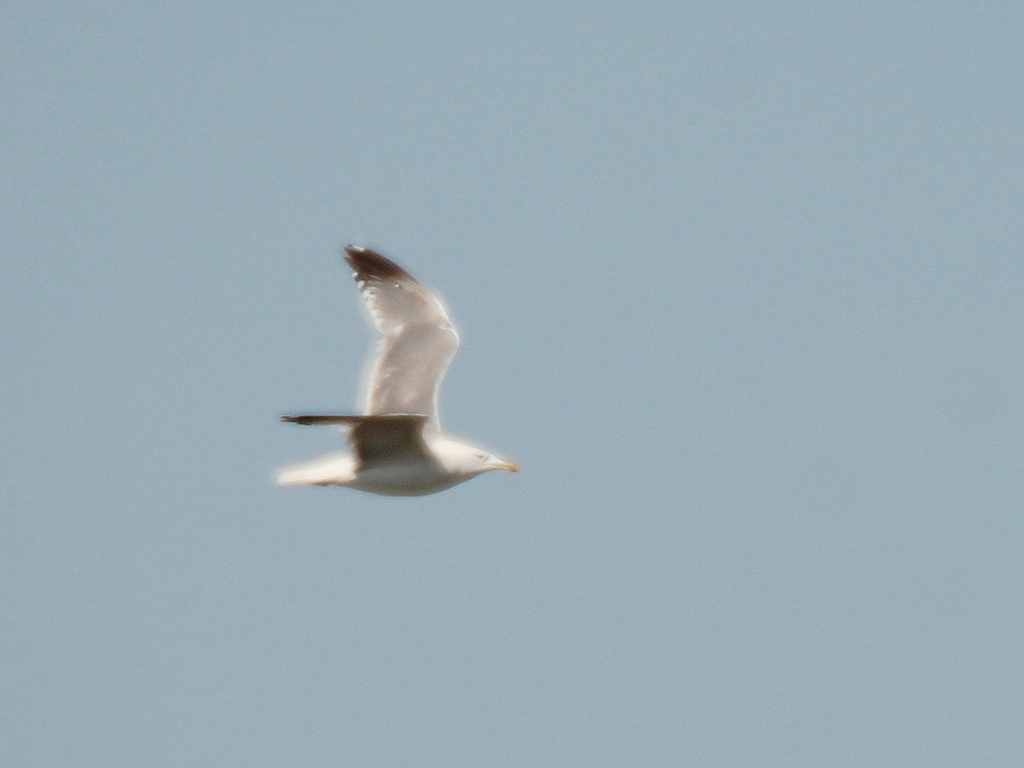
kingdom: Animalia
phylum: Chordata
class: Aves
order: Charadriiformes
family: Laridae
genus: Larus
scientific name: Larus fuscus
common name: Lesser black-backed gull
